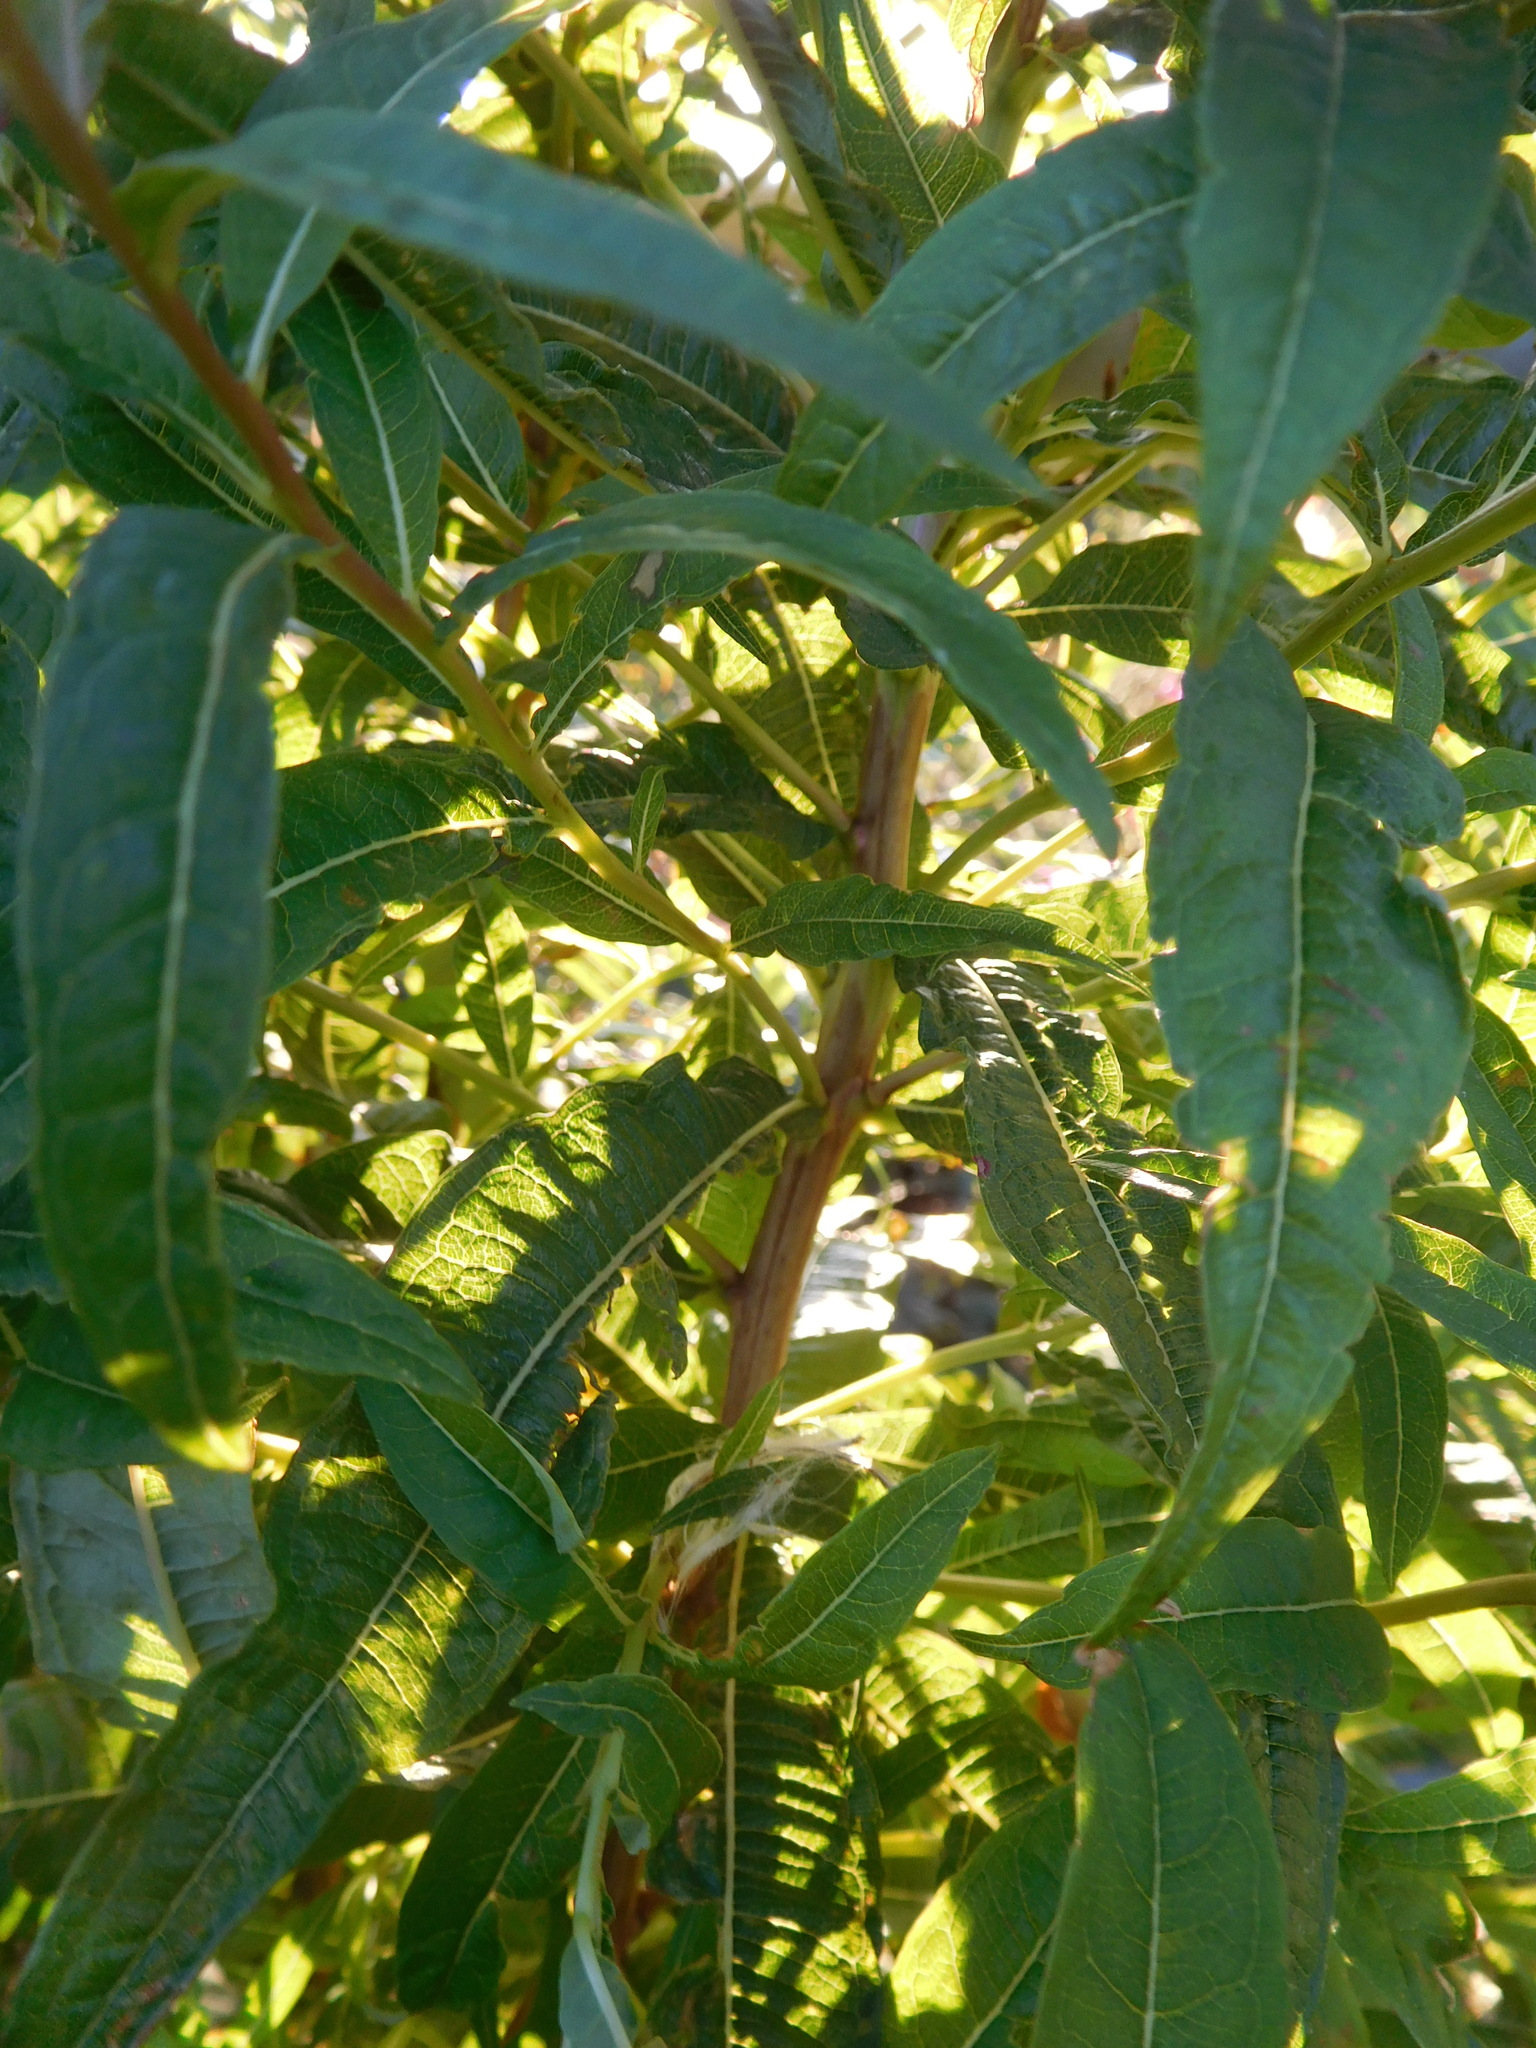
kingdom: Plantae
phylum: Tracheophyta
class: Magnoliopsida
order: Myrtales
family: Onagraceae
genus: Chamaenerion
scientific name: Chamaenerion angustifolium
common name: Fireweed
